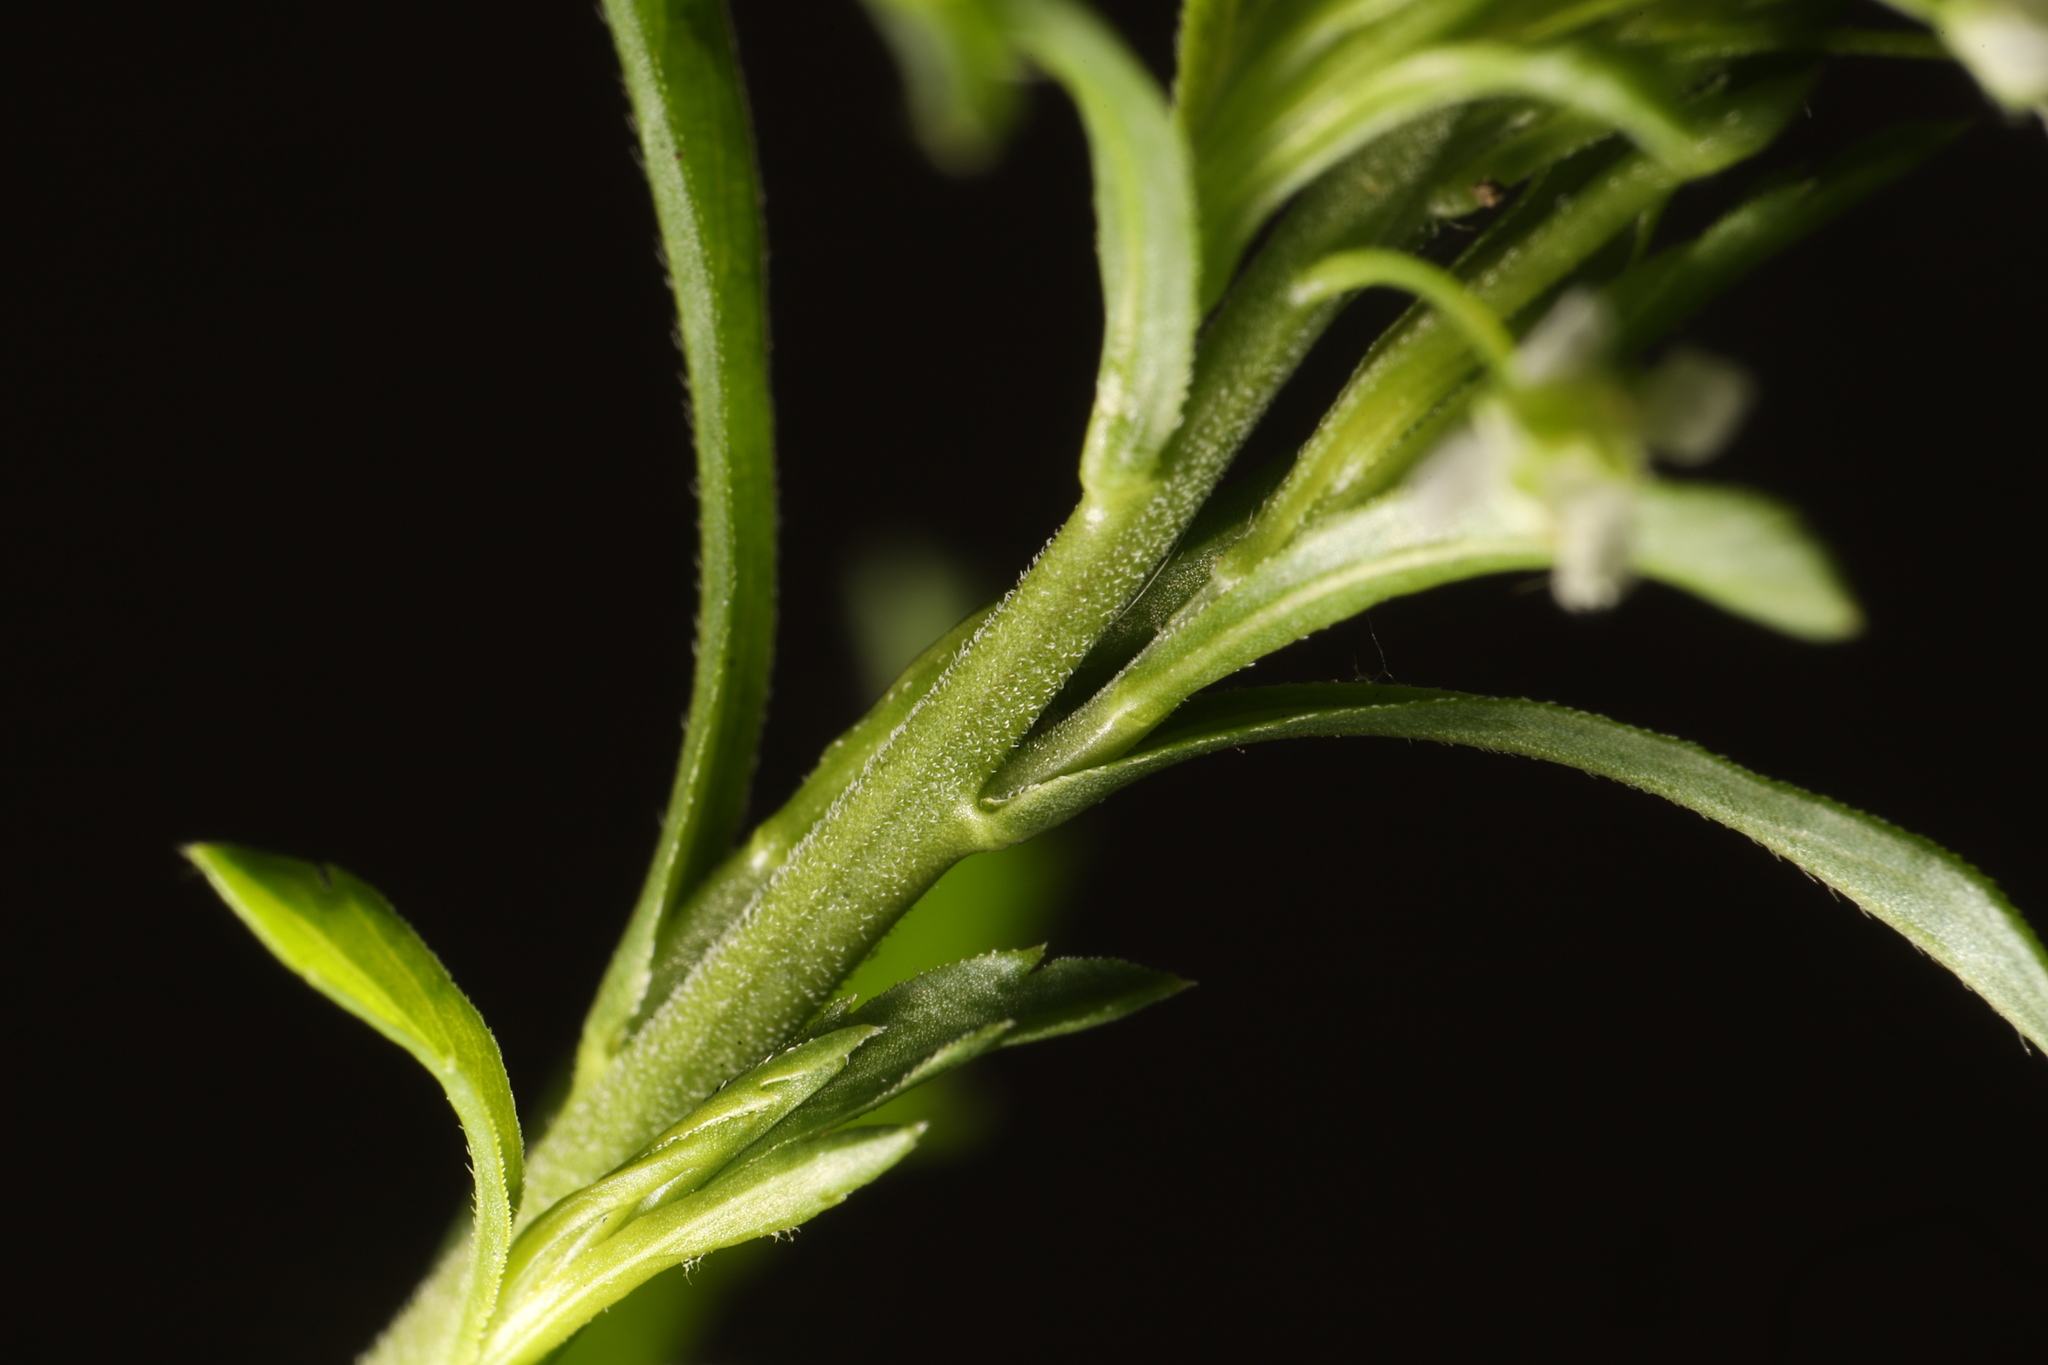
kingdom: Plantae
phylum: Tracheophyta
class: Magnoliopsida
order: Brassicales
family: Brassicaceae
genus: Lepidium
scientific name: Lepidium virginicum
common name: Least pepperwort
